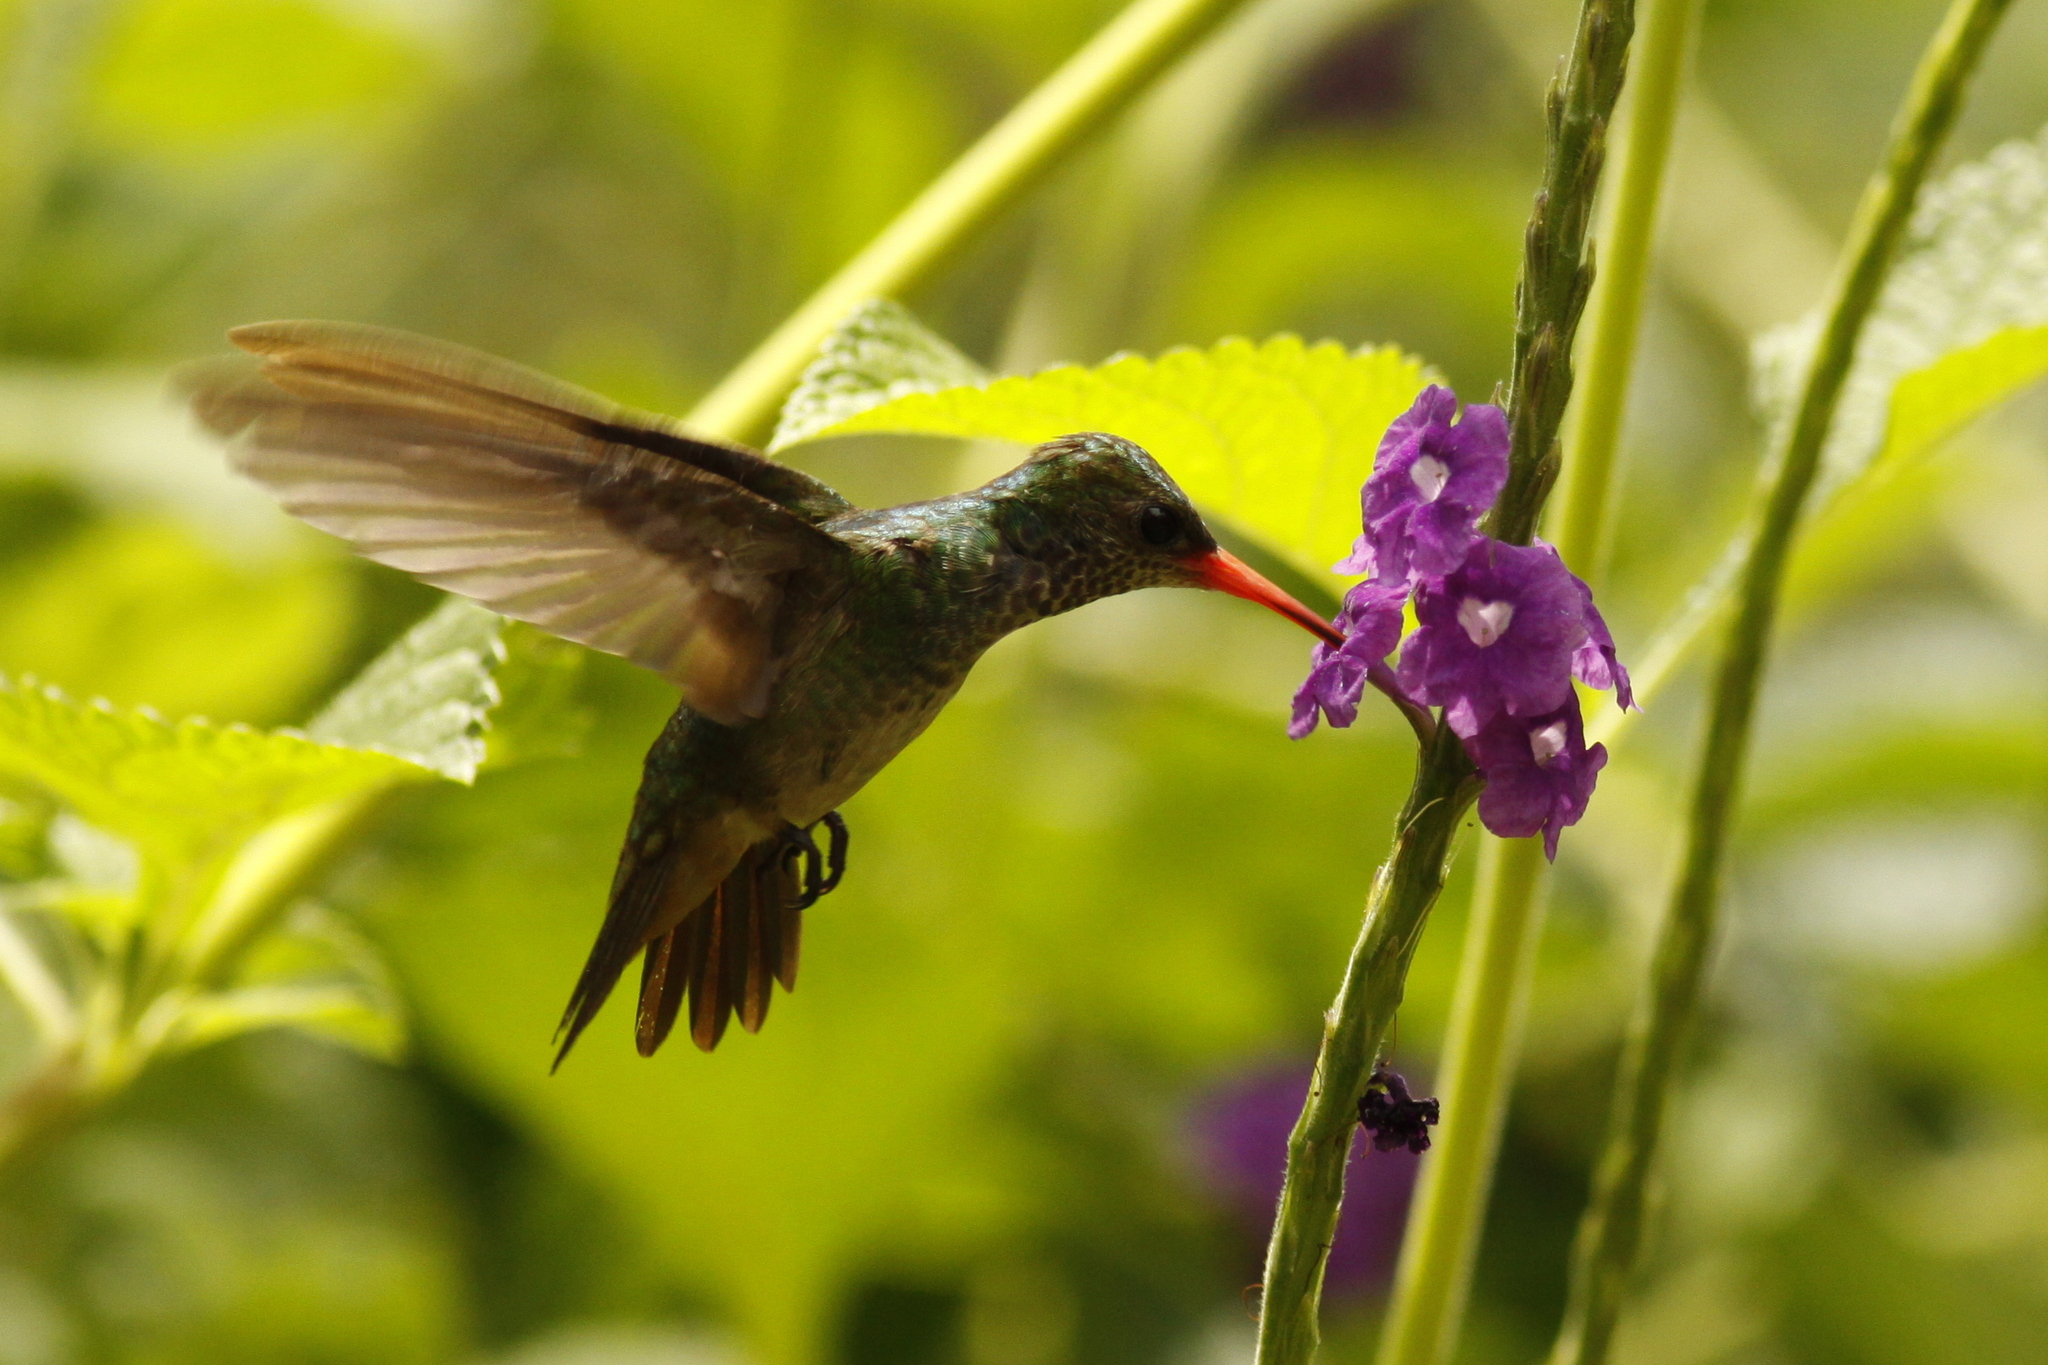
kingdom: Animalia
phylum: Chordata
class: Aves
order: Apodiformes
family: Trochilidae
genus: Amazilia
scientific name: Amazilia tzacatl
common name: Rufous-tailed hummingbird
